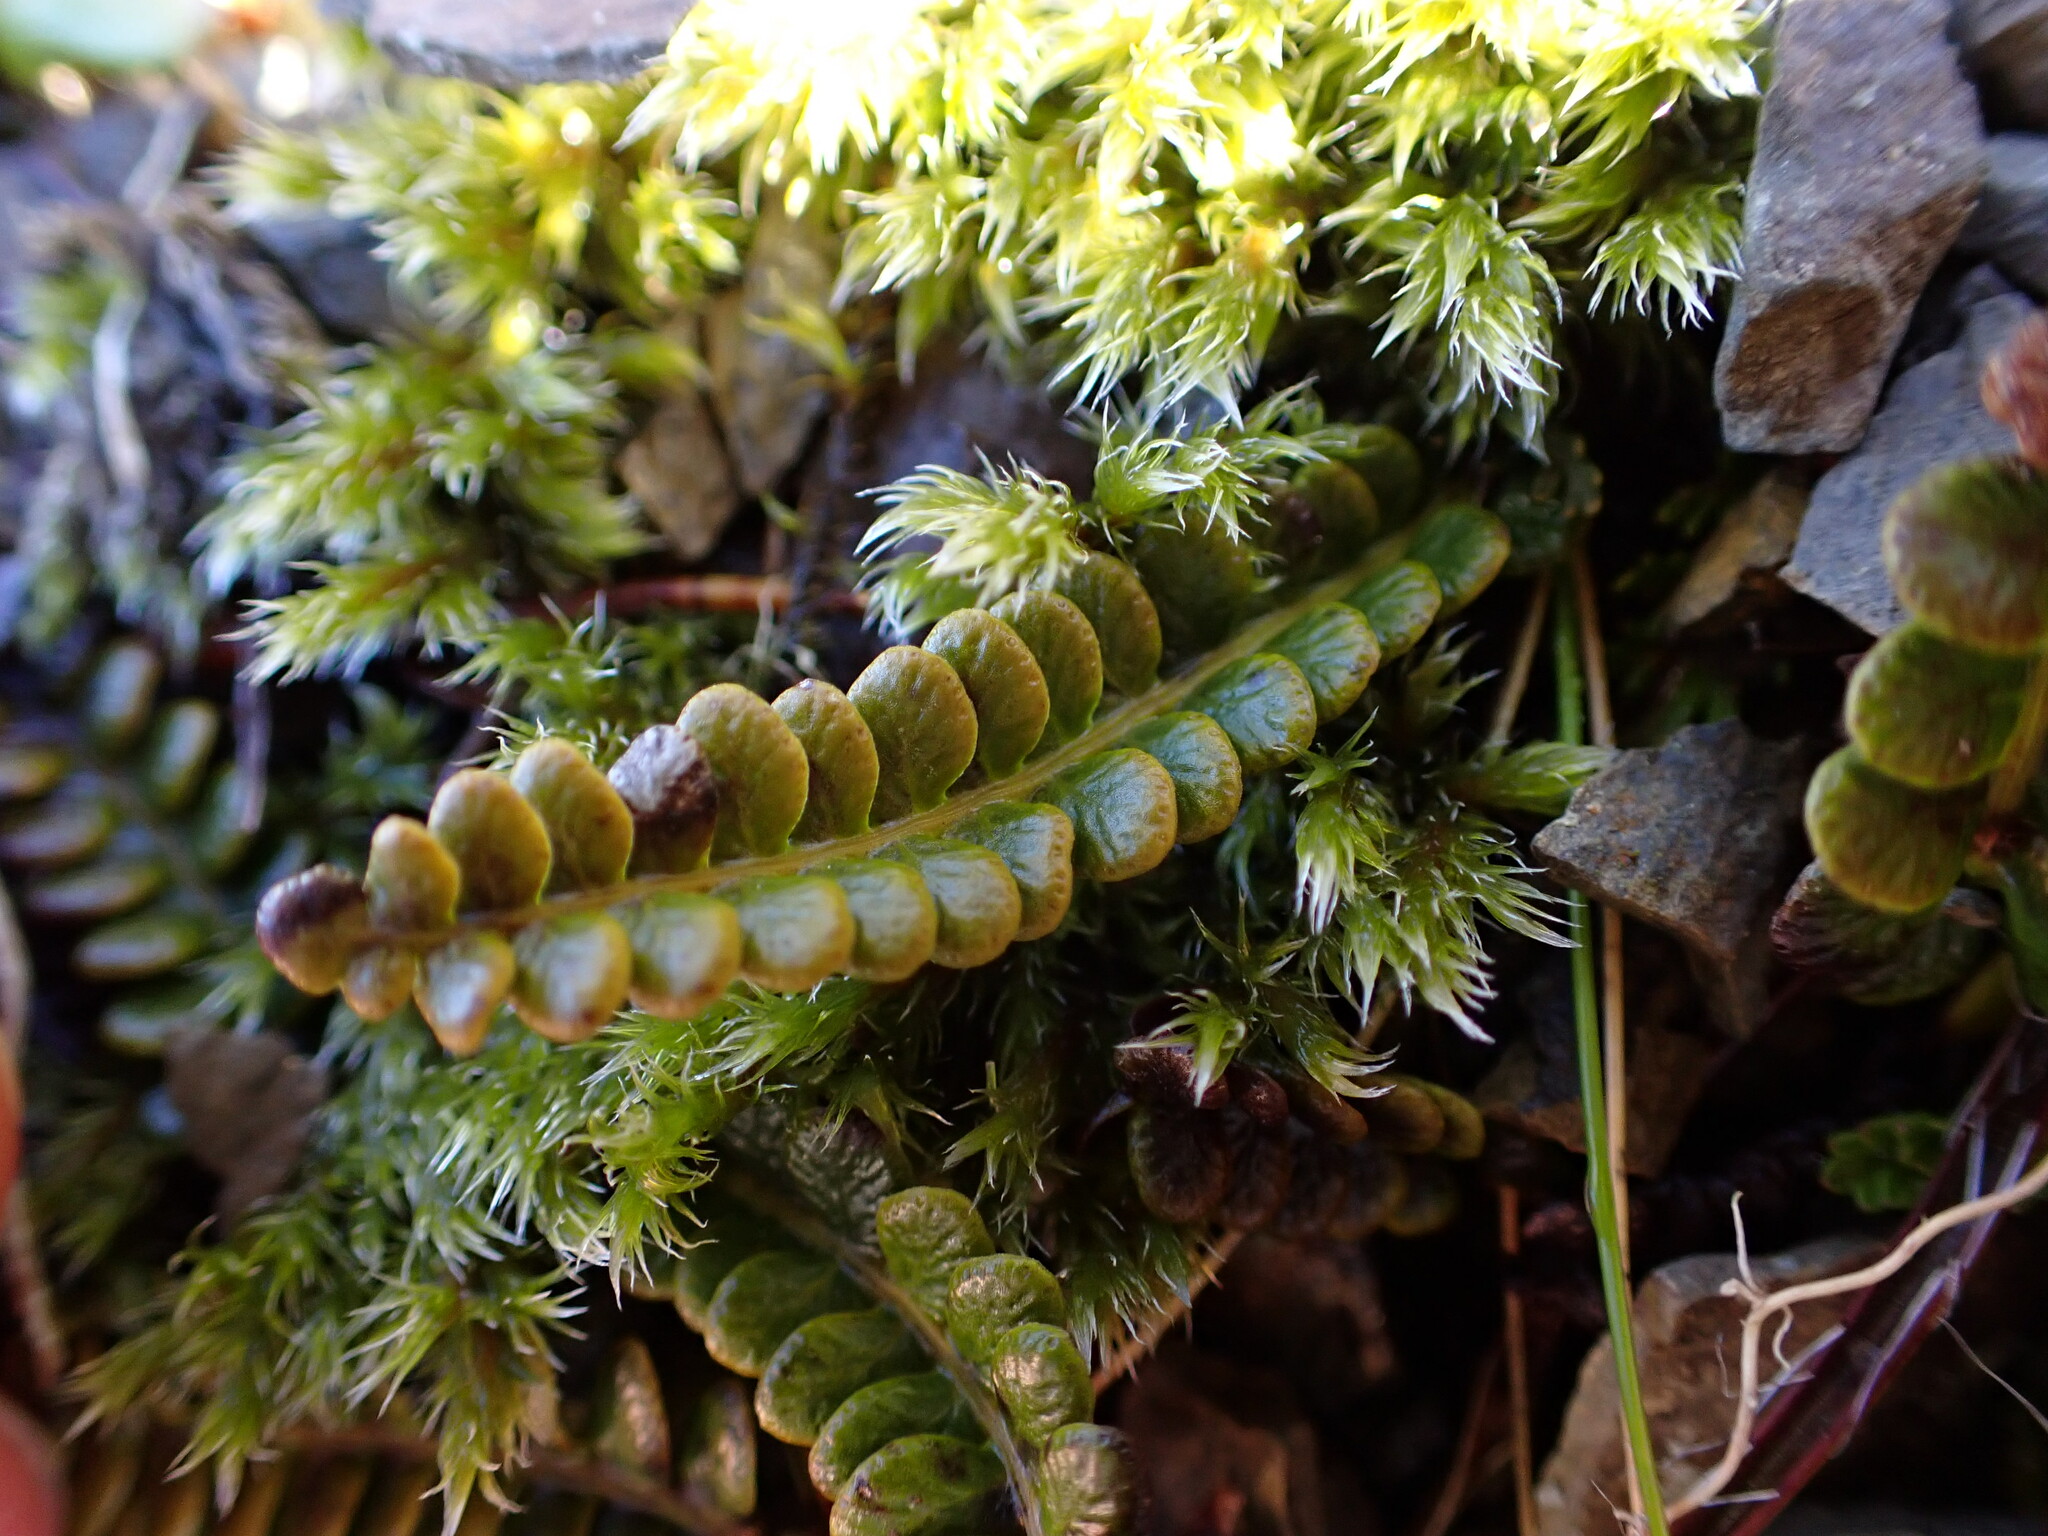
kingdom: Plantae
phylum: Tracheophyta
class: Polypodiopsida
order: Polypodiales
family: Blechnaceae
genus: Austroblechnum
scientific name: Austroblechnum penna-marina
